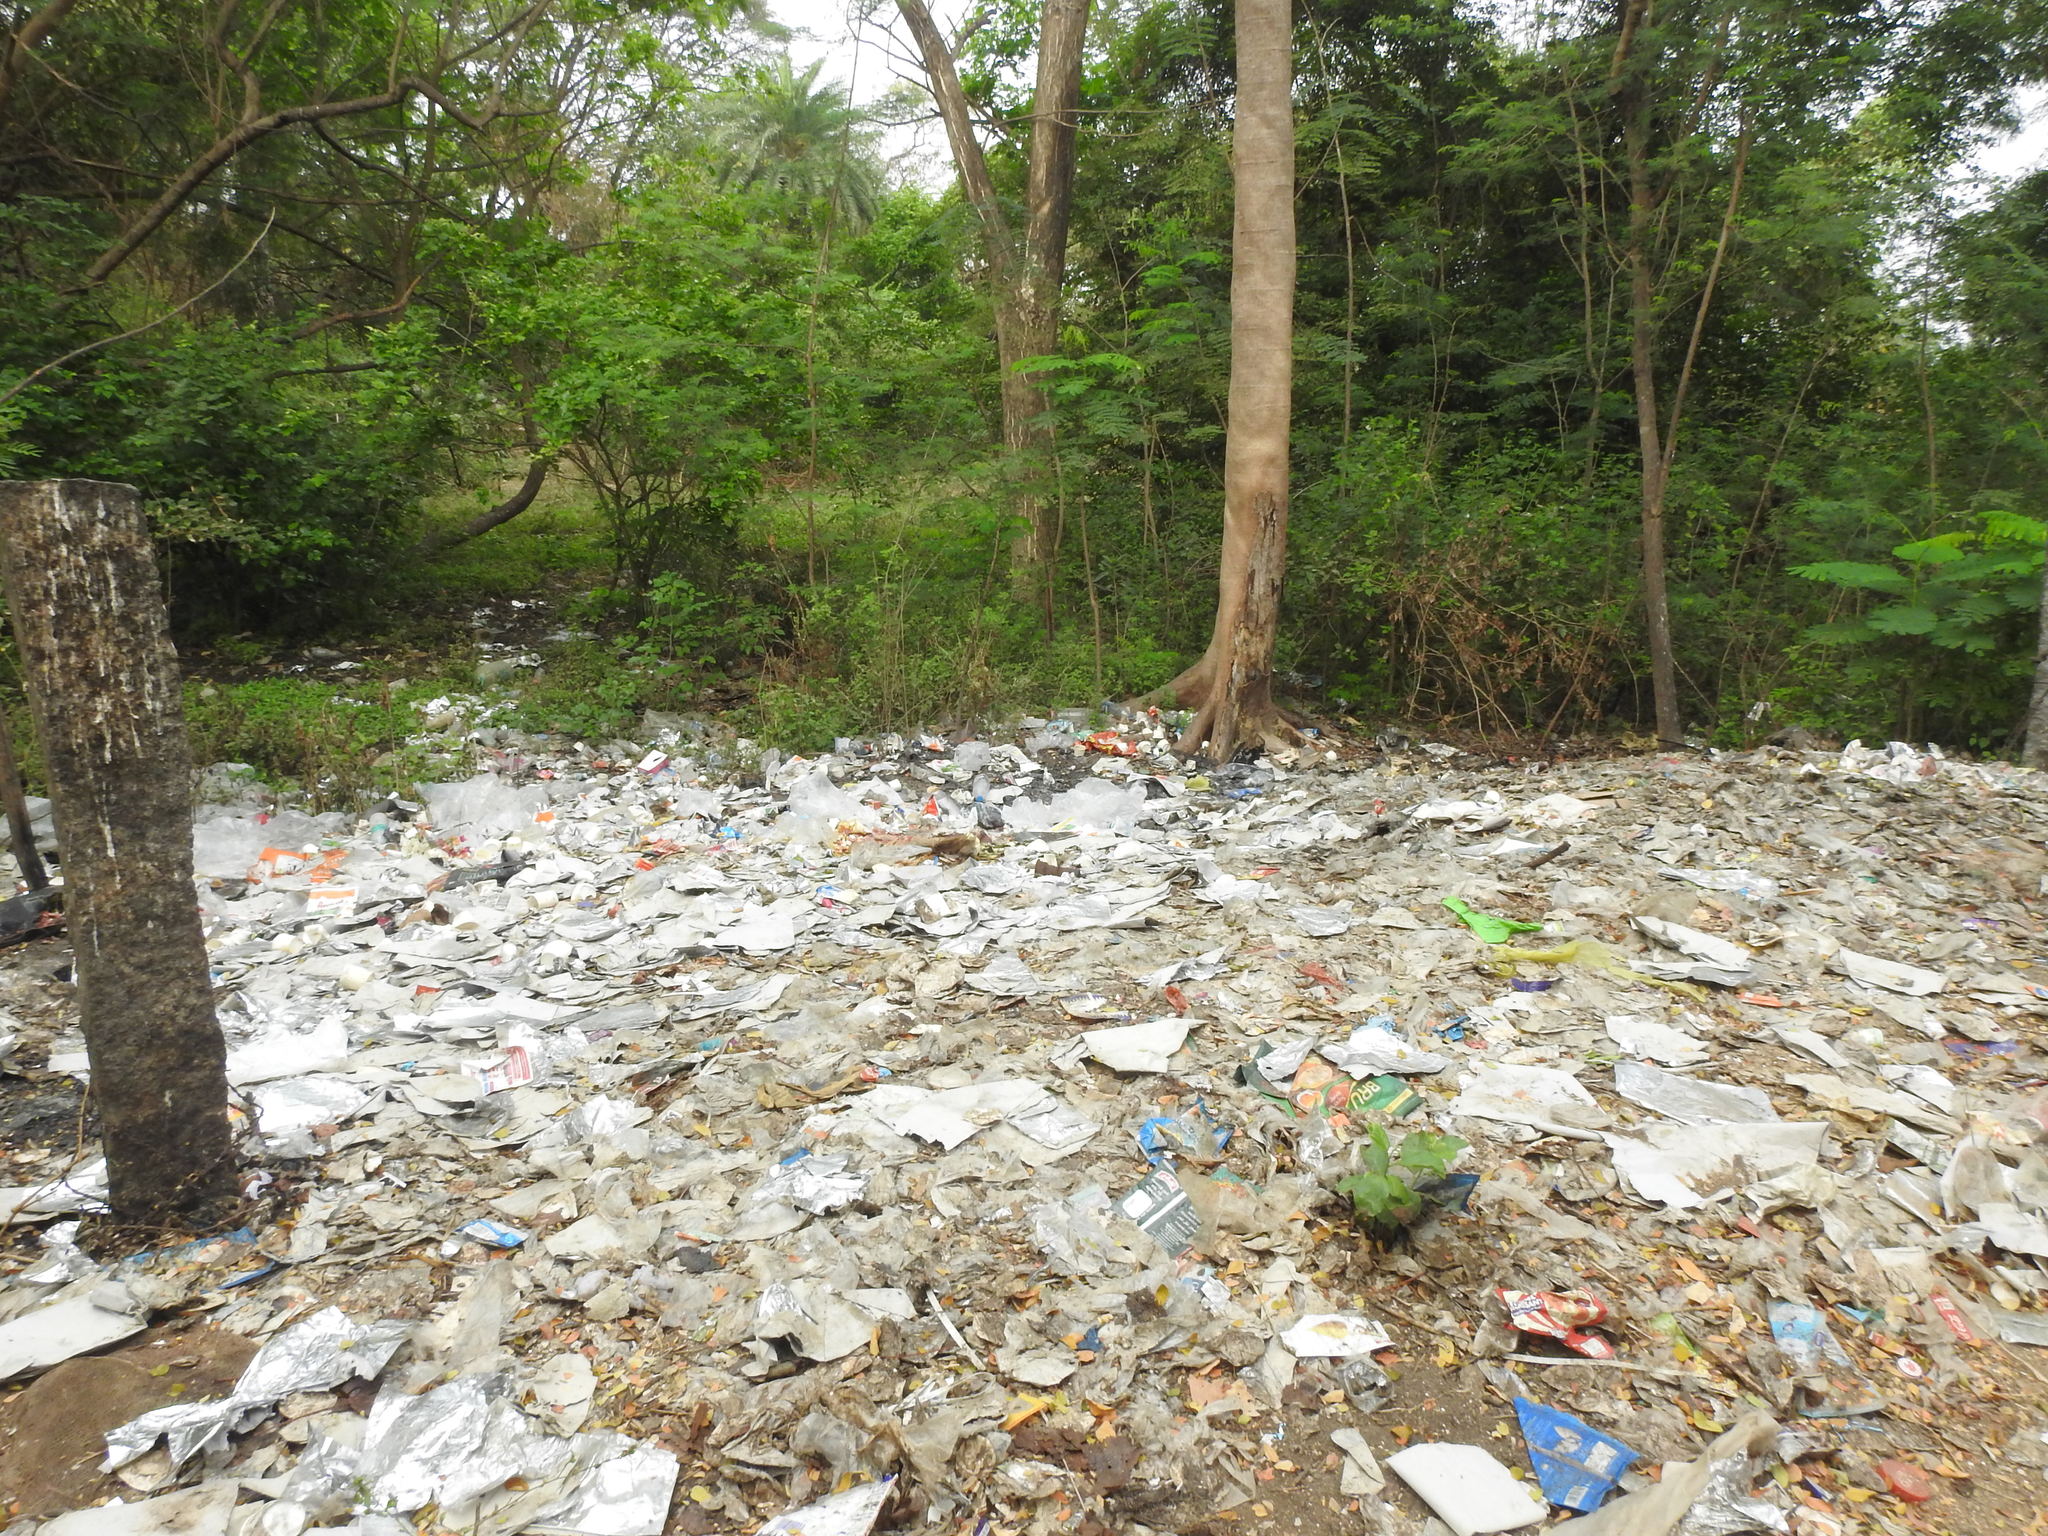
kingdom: Plantae
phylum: Tracheophyta
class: Magnoliopsida
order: Fabales
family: Fabaceae
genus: Delonix
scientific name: Delonix regia
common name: Royal poinciana
